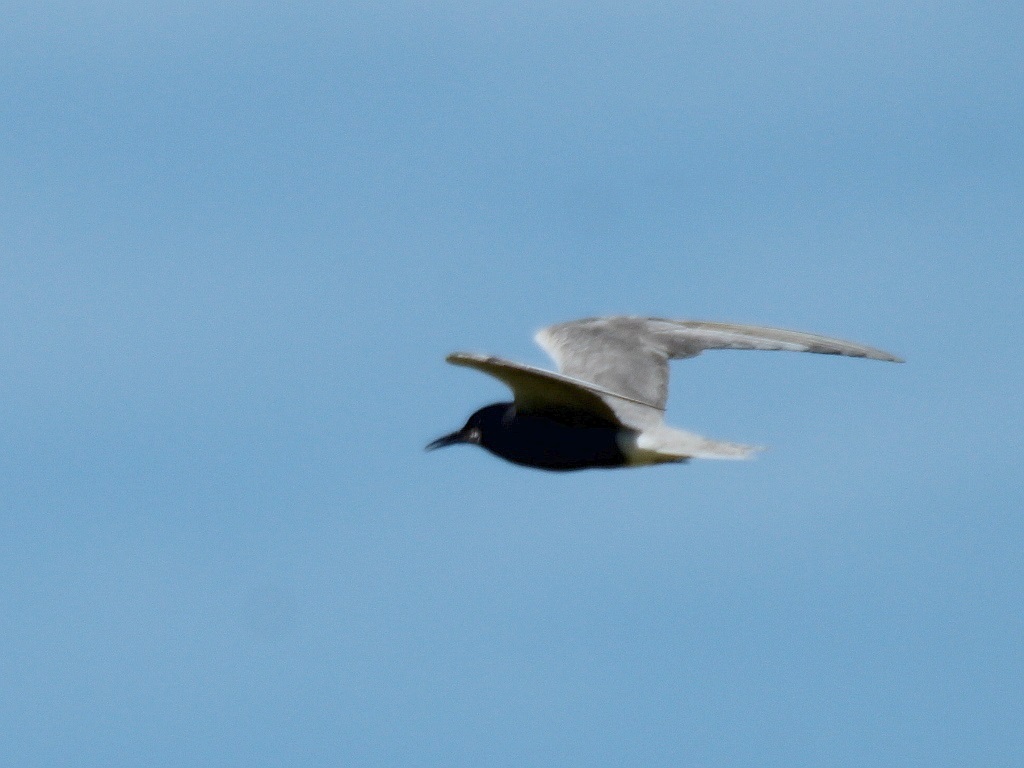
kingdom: Animalia
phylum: Chordata
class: Aves
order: Charadriiformes
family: Laridae
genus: Chlidonias
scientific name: Chlidonias niger
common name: Black tern
